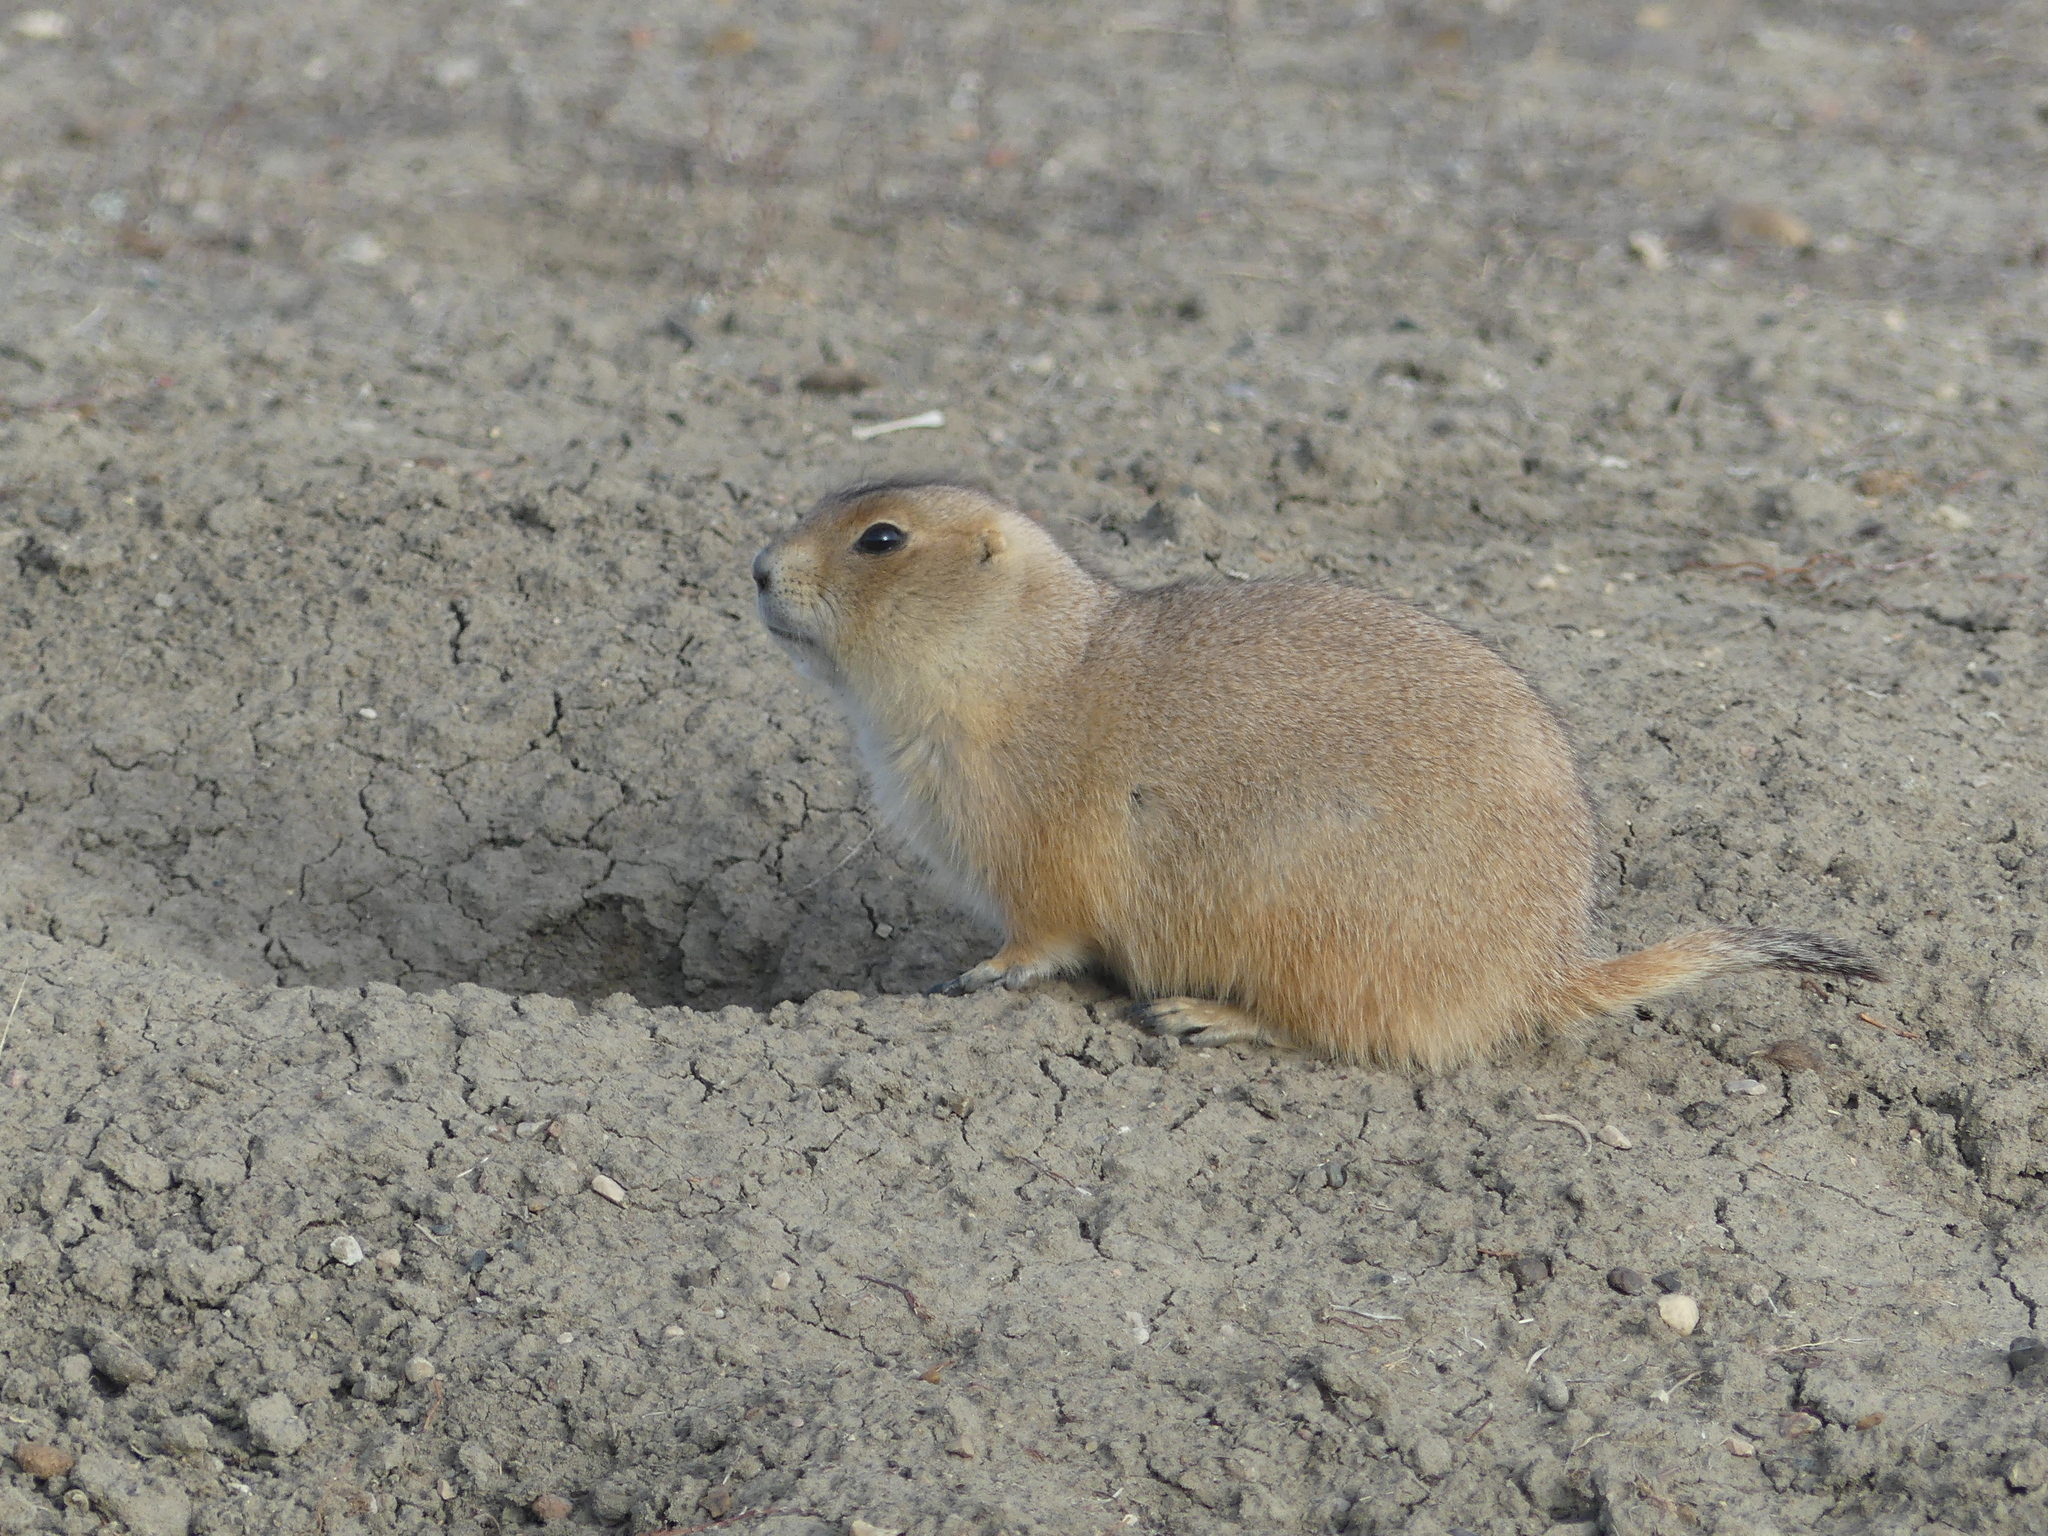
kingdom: Animalia
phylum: Chordata
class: Mammalia
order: Rodentia
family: Sciuridae
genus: Cynomys
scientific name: Cynomys ludovicianus
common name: Black-tailed prairie dog
